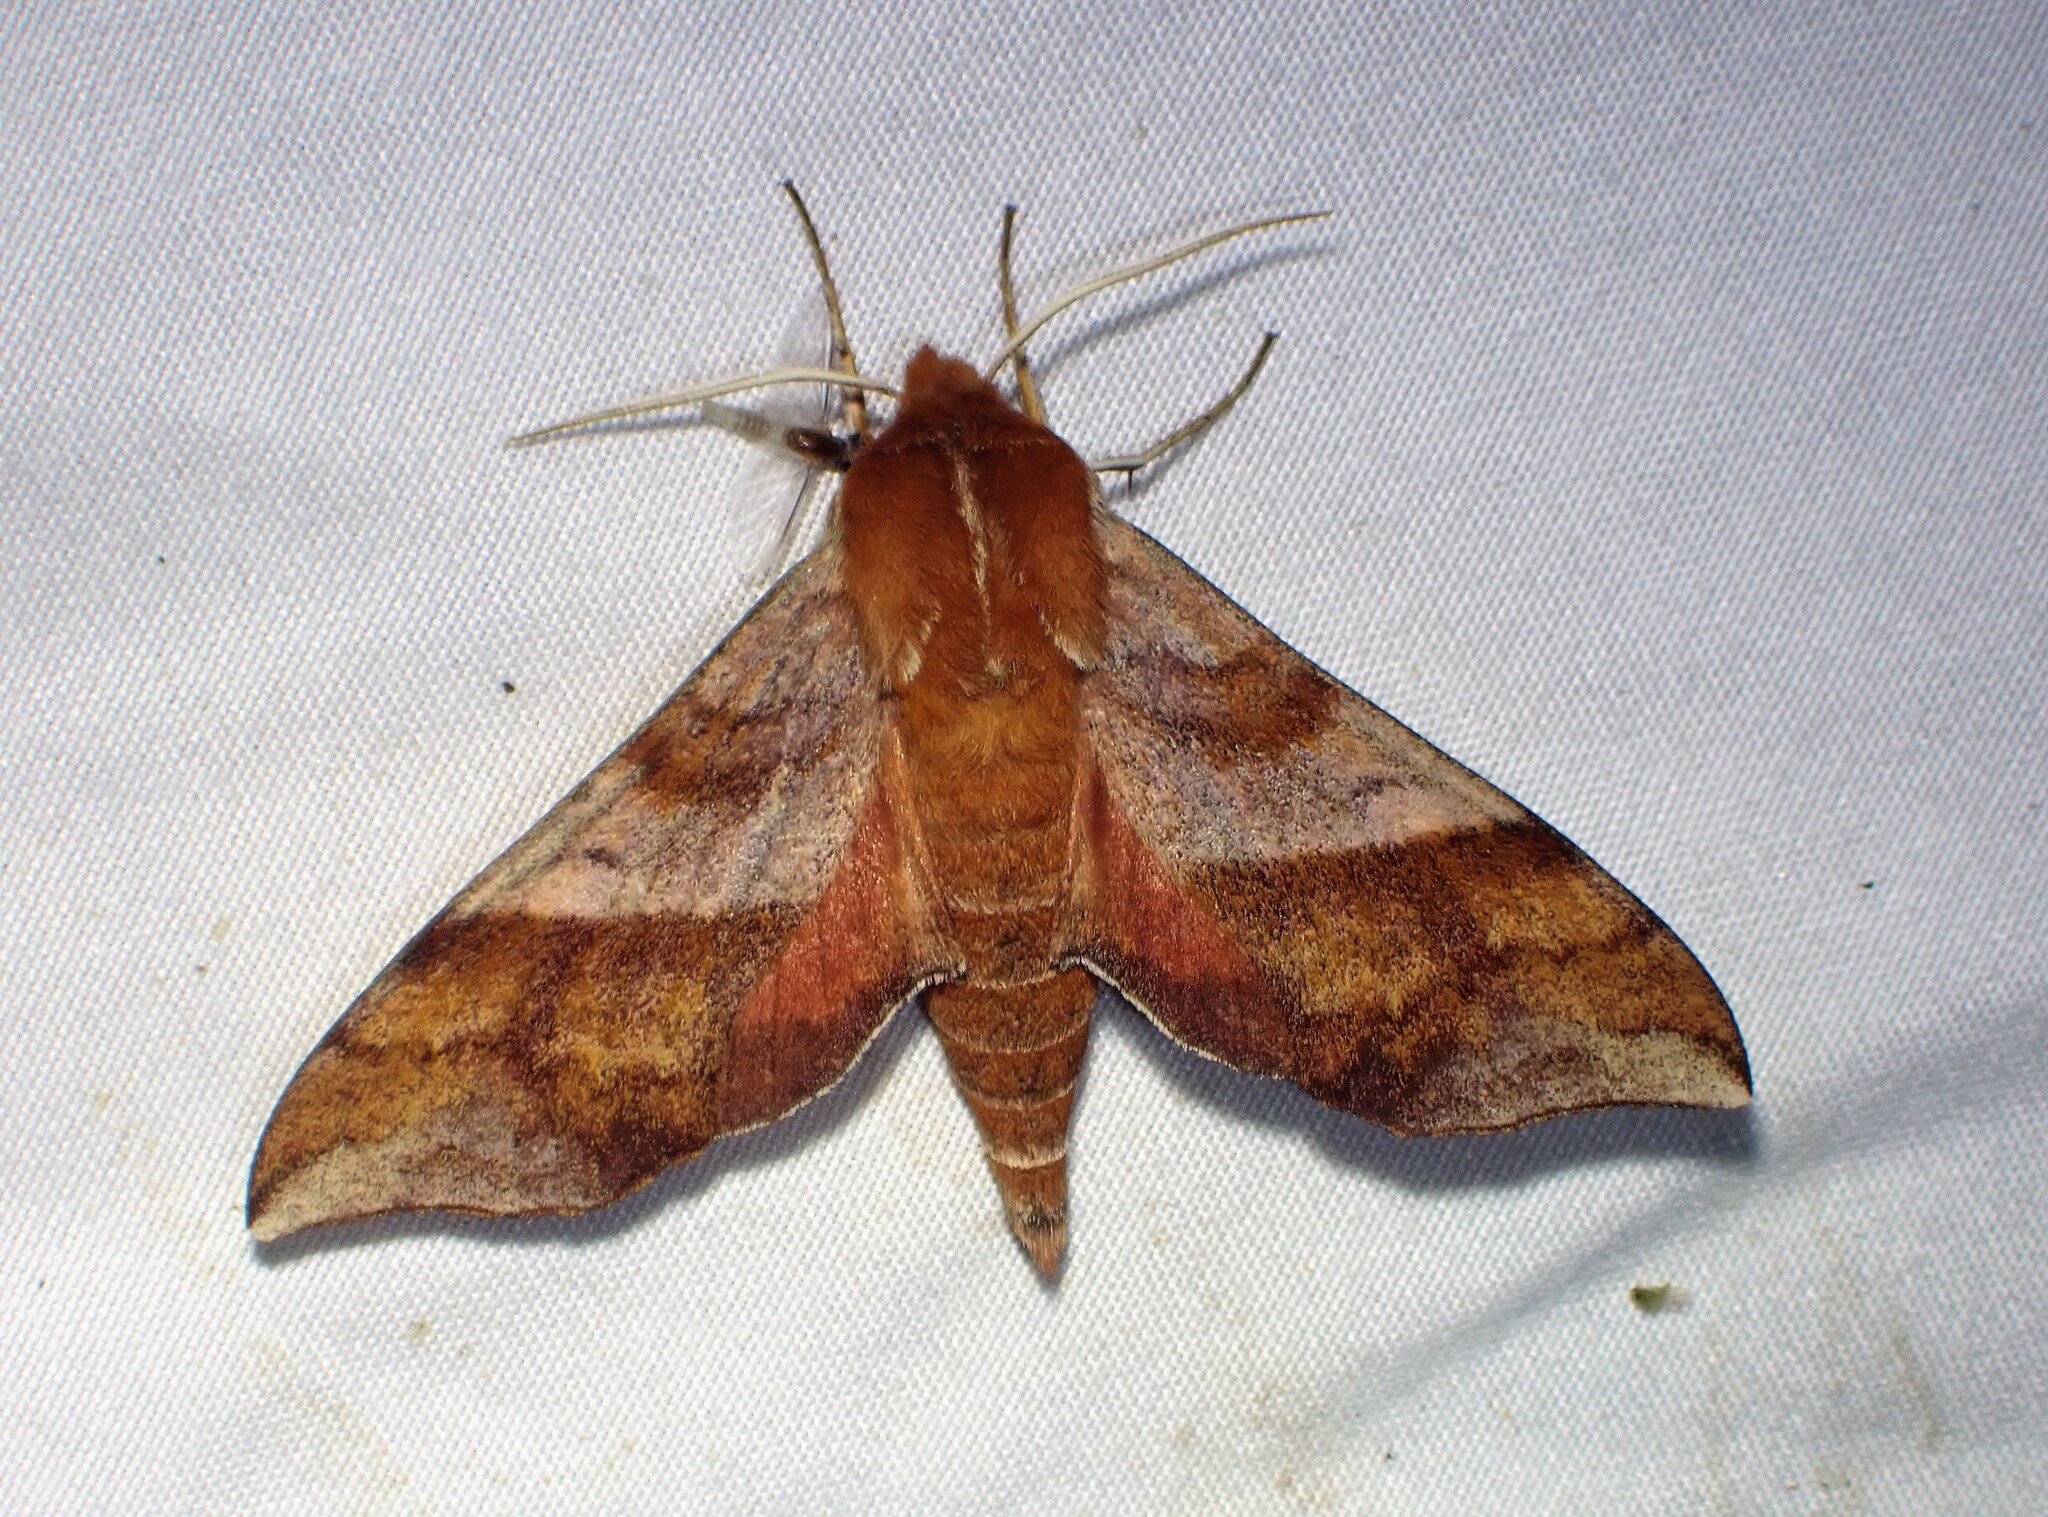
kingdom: Animalia
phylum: Arthropoda
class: Insecta
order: Lepidoptera
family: Sphingidae
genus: Darapsa
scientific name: Darapsa choerilus
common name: Azalea sphinx
